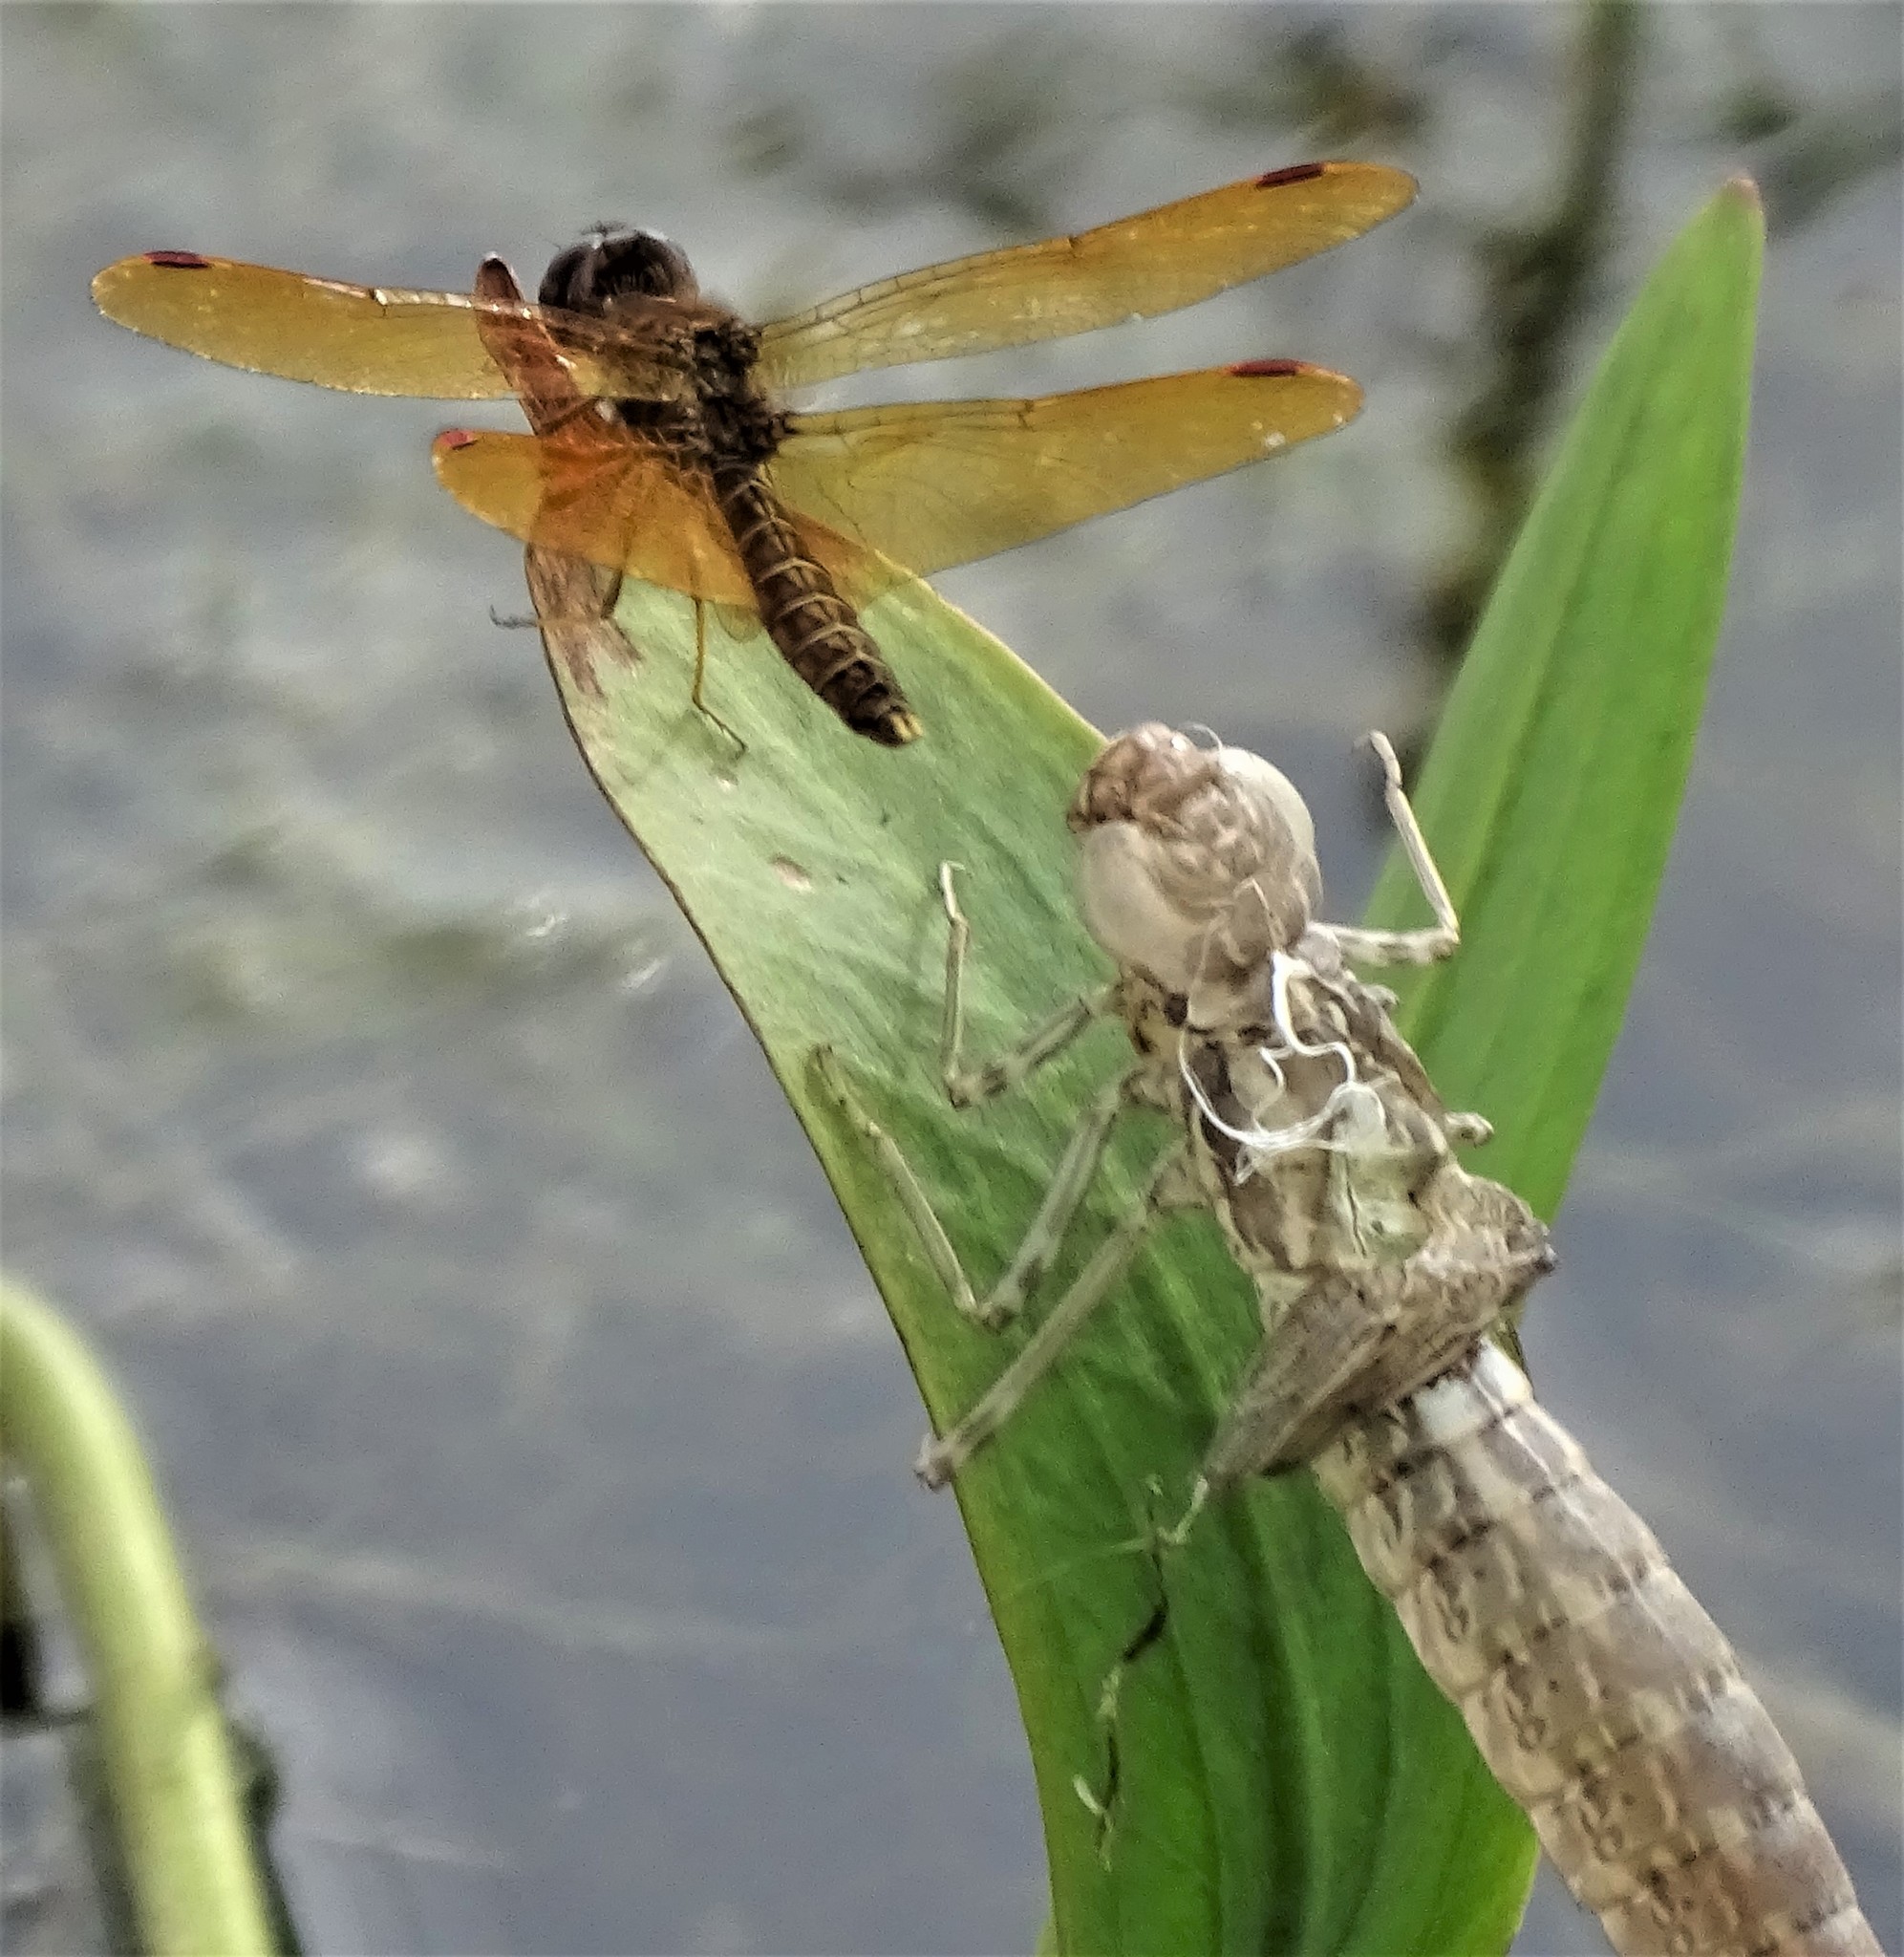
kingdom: Animalia
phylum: Arthropoda
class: Insecta
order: Odonata
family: Libellulidae
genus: Perithemis
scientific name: Perithemis tenera
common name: Eastern amberwing
